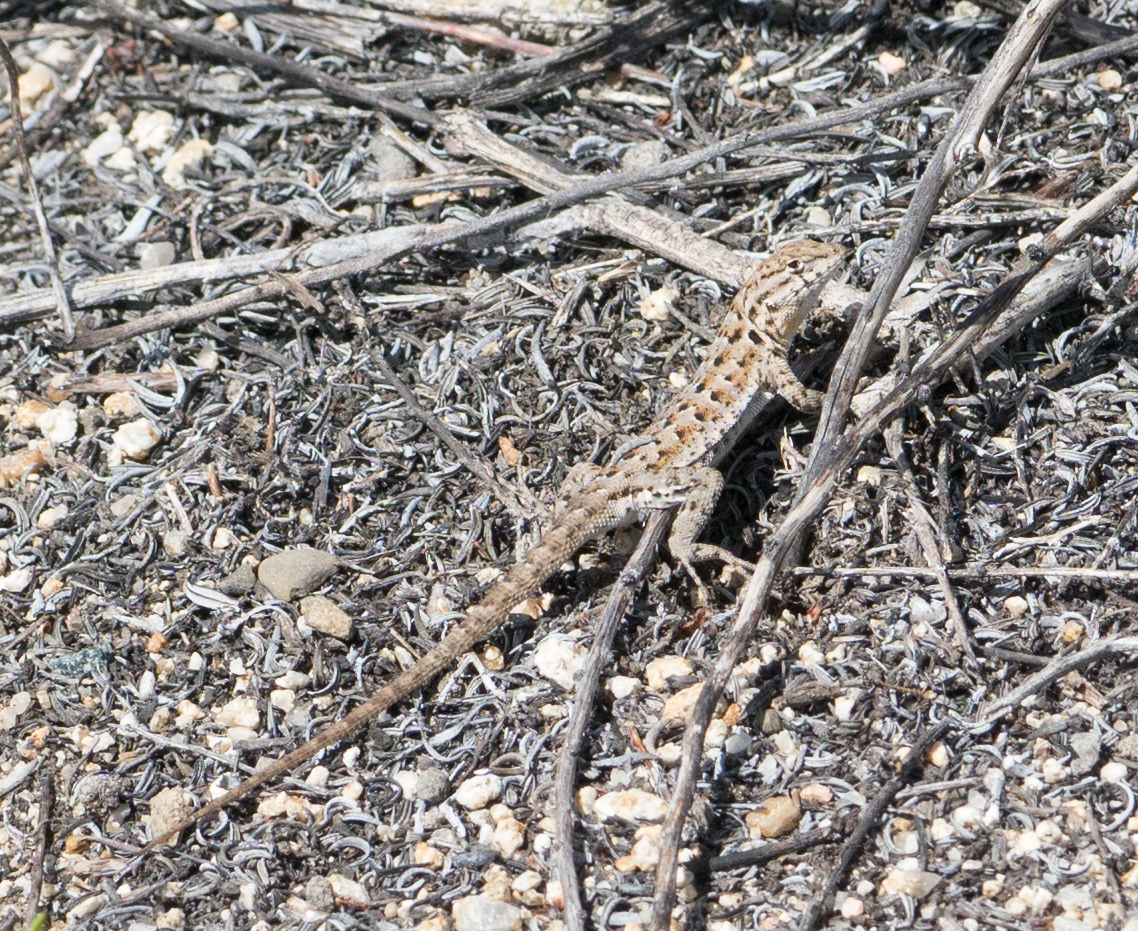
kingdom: Animalia
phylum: Chordata
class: Squamata
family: Phrynosomatidae
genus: Uta
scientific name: Uta stansburiana
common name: Side-blotched lizard
